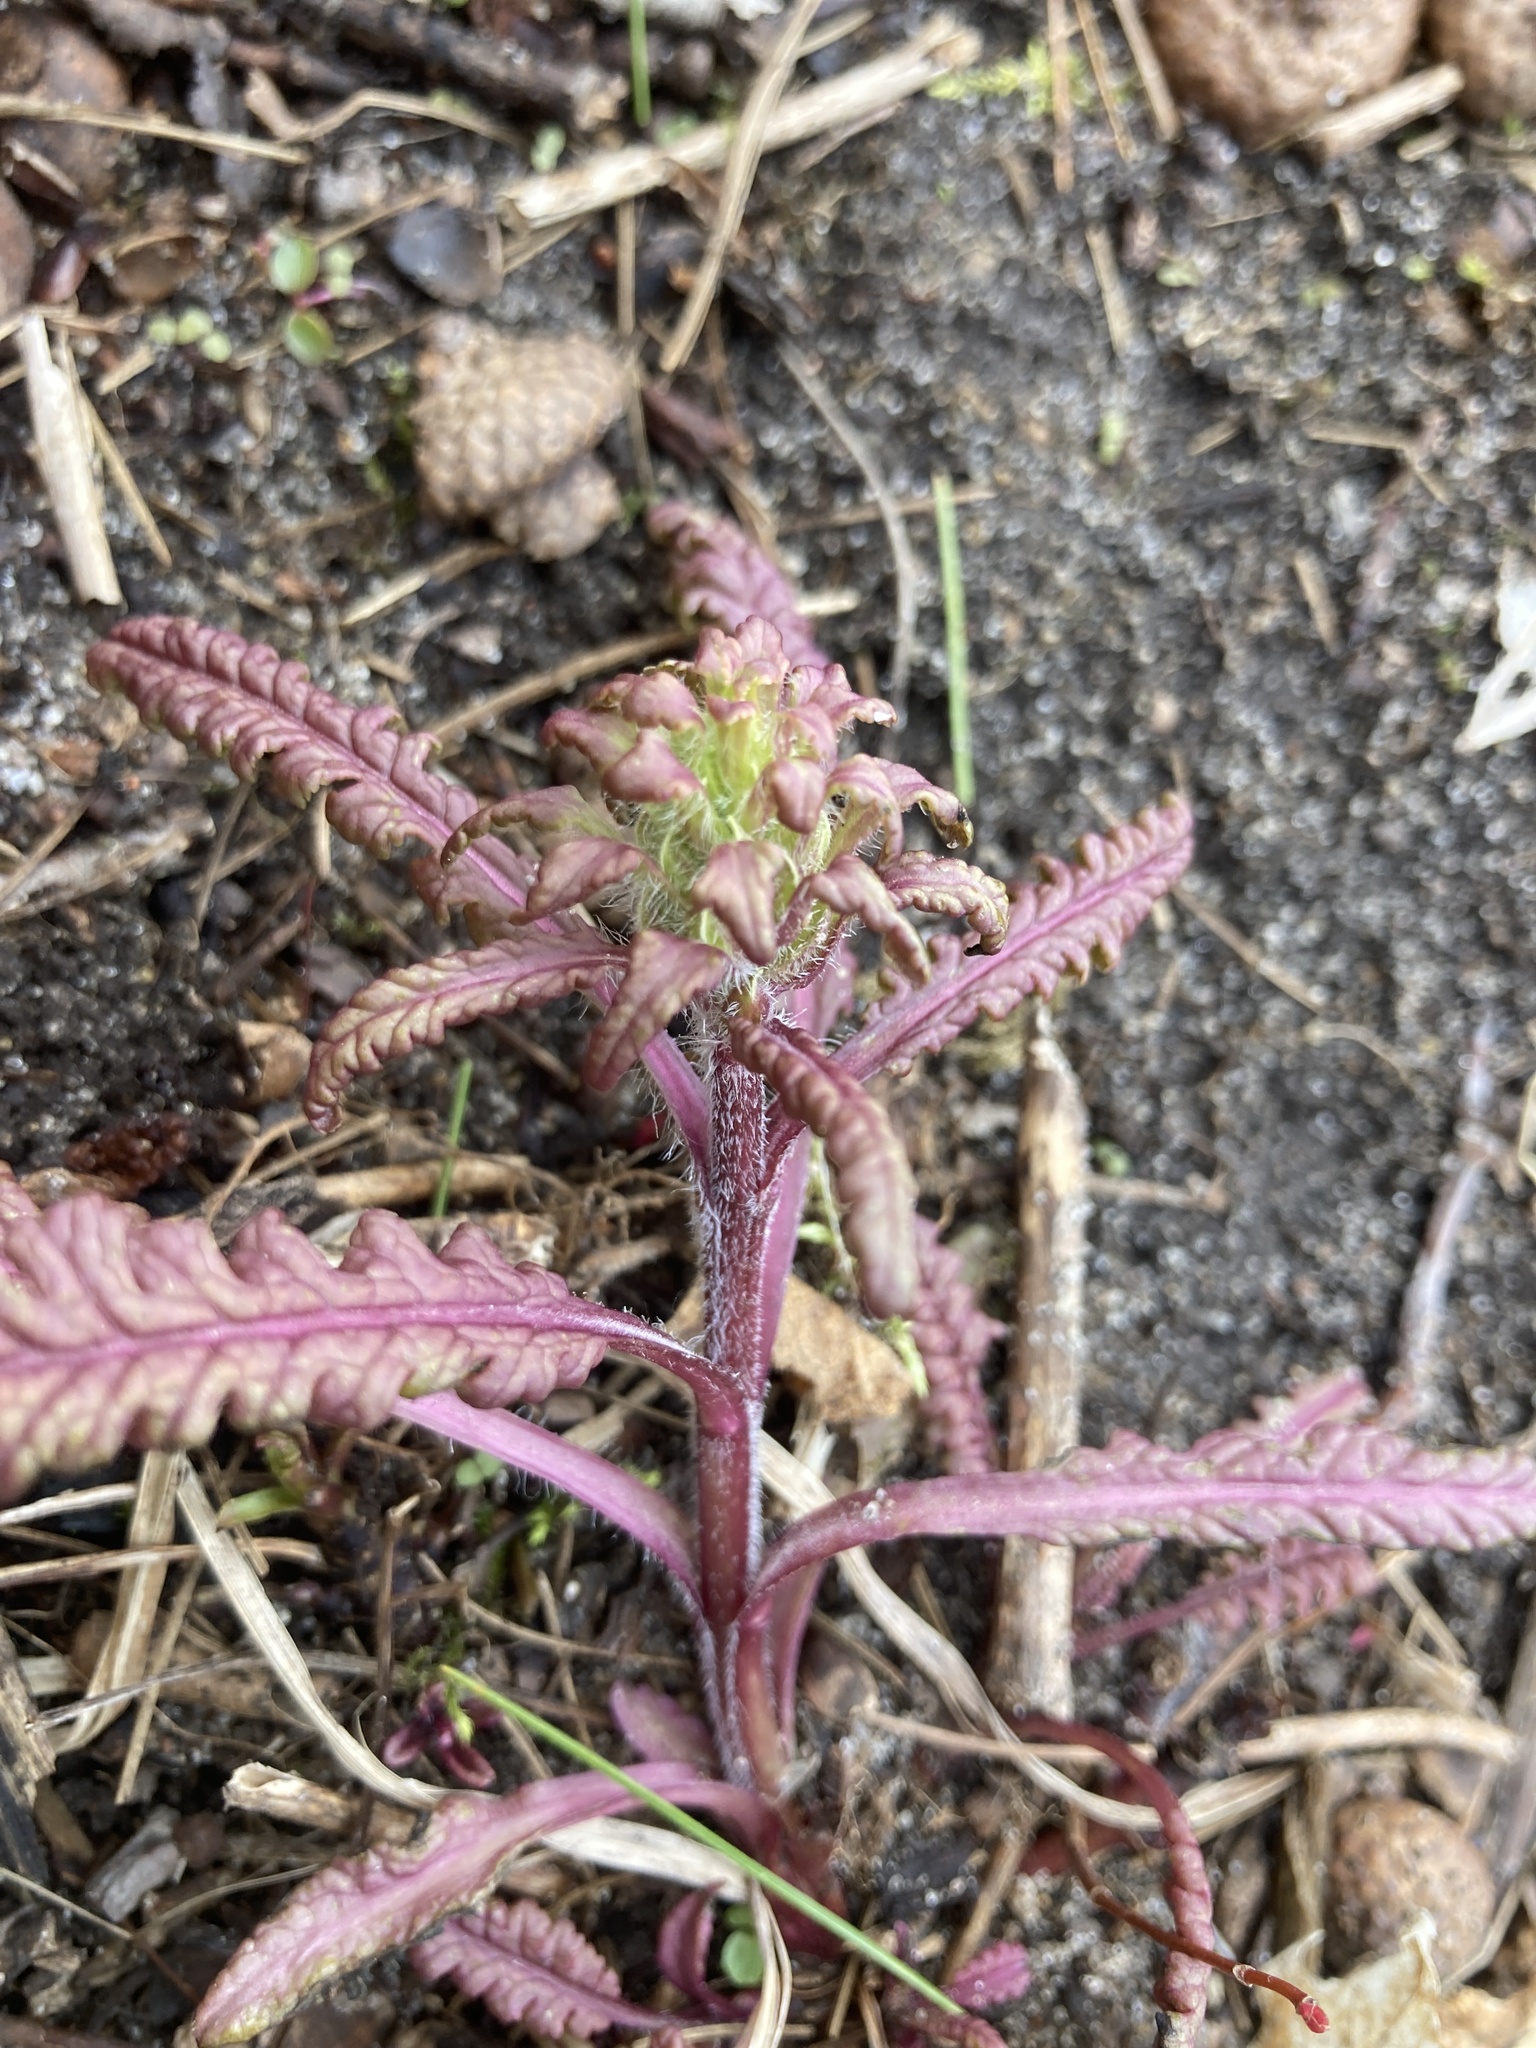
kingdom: Plantae
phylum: Tracheophyta
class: Magnoliopsida
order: Lamiales
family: Orobanchaceae
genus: Pedicularis
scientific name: Pedicularis canadensis
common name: Early lousewort
